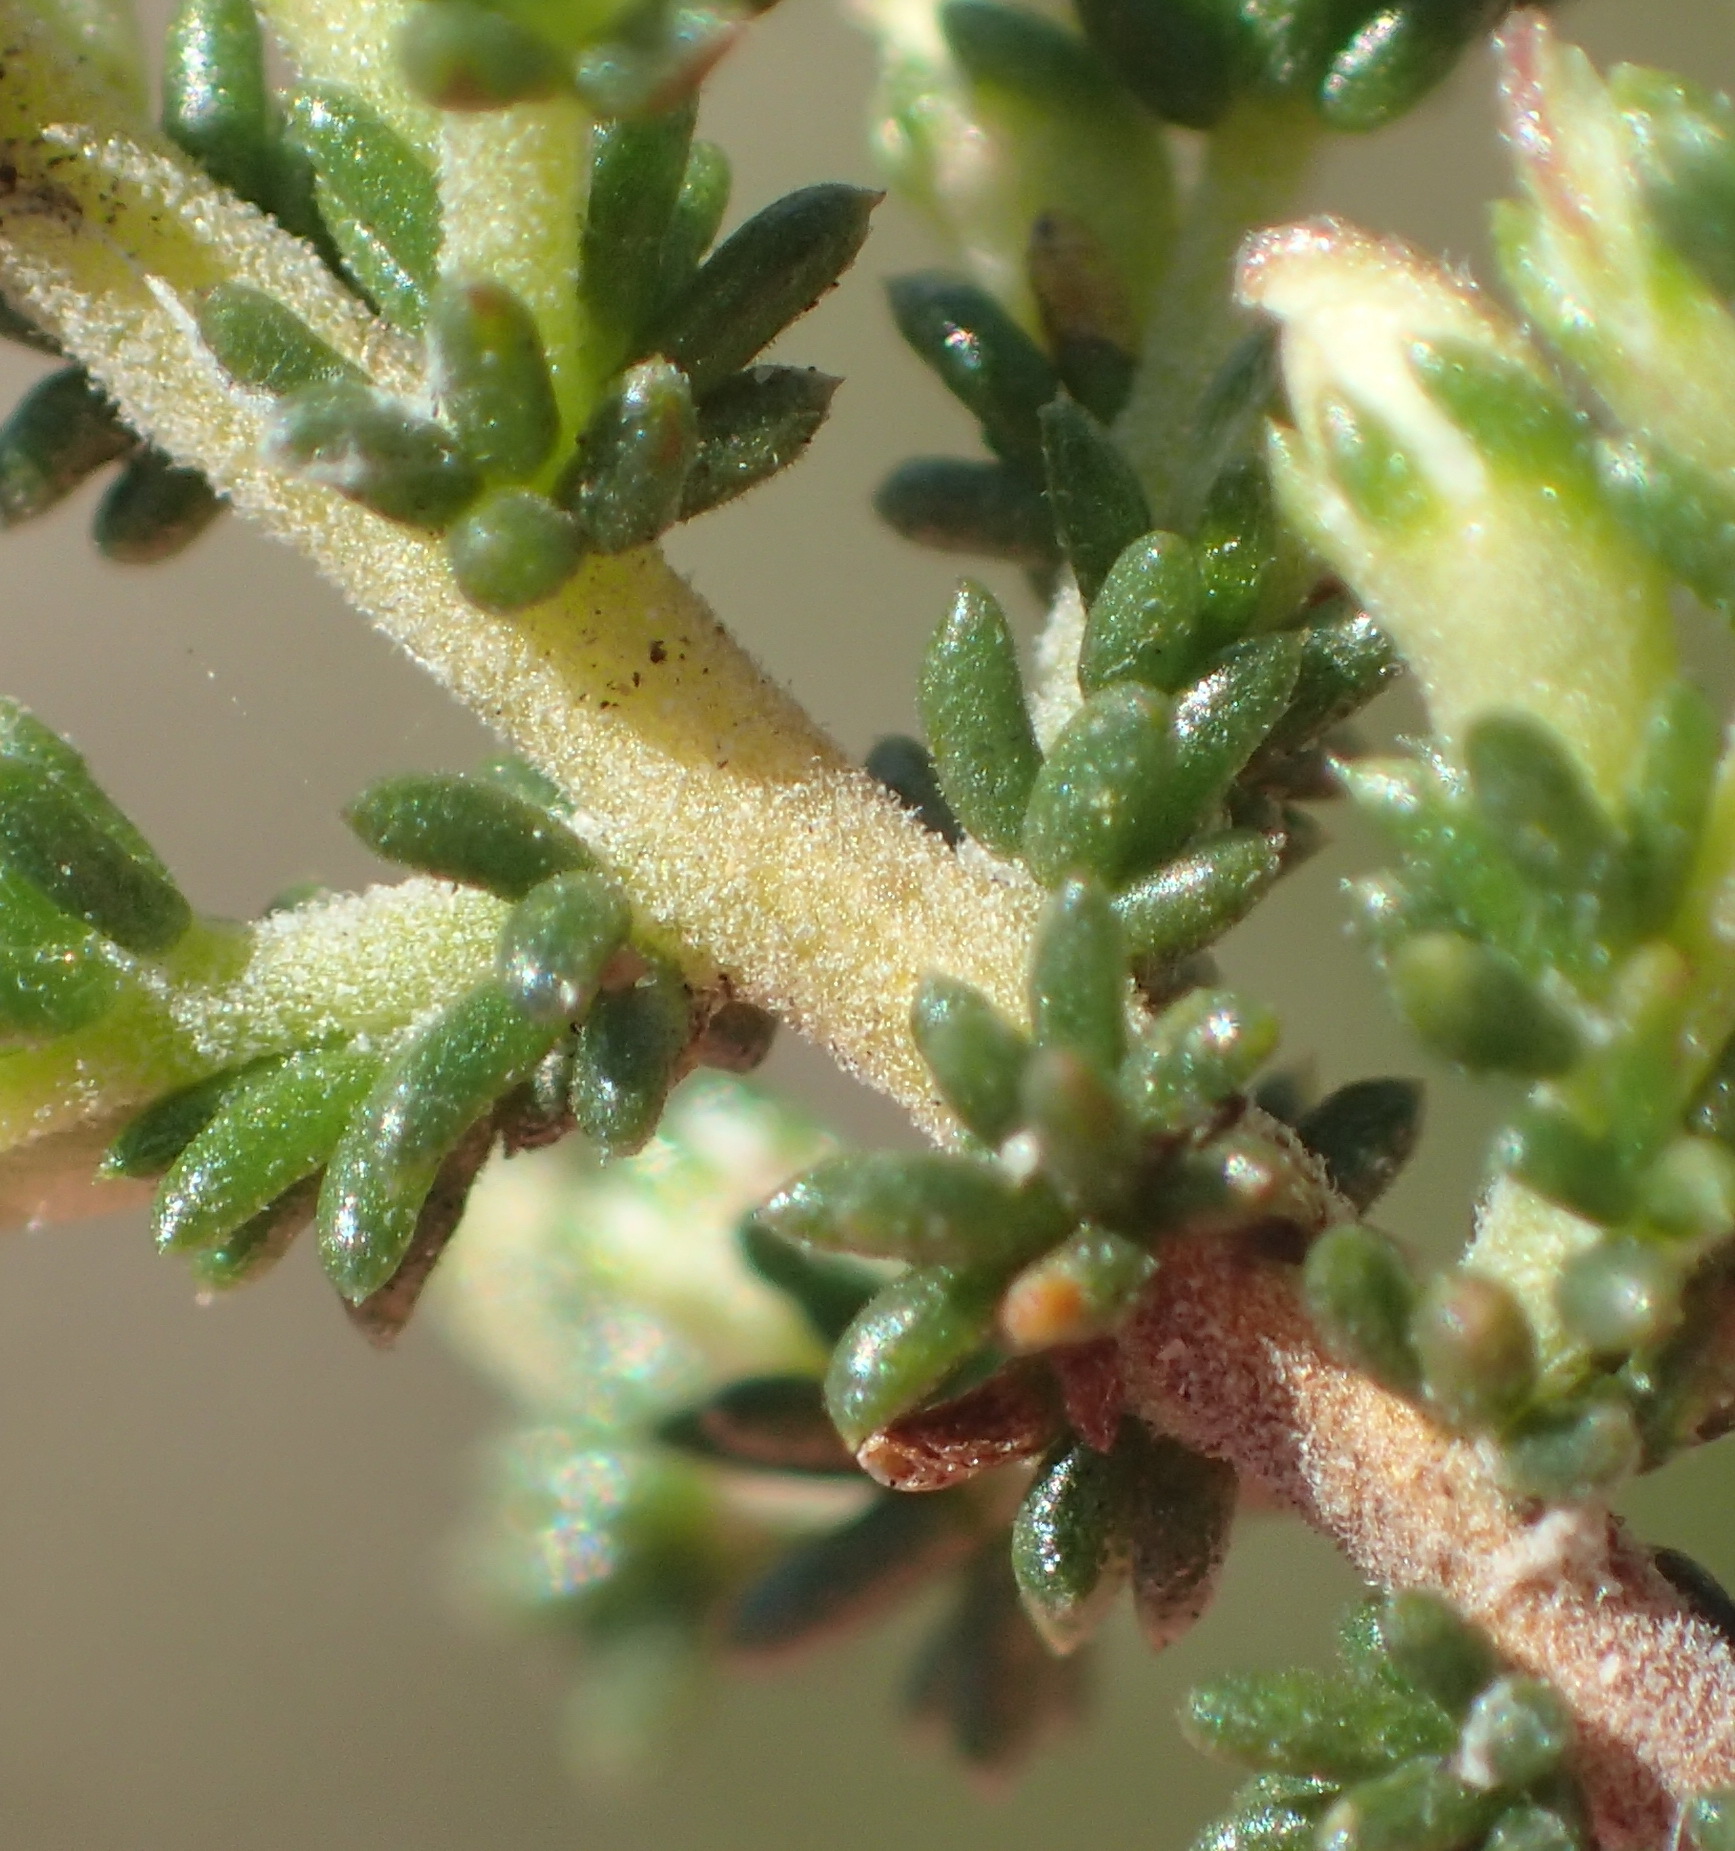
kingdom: Plantae
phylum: Tracheophyta
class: Magnoliopsida
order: Fabales
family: Fabaceae
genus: Aspalathus
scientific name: Aspalathus hispida
